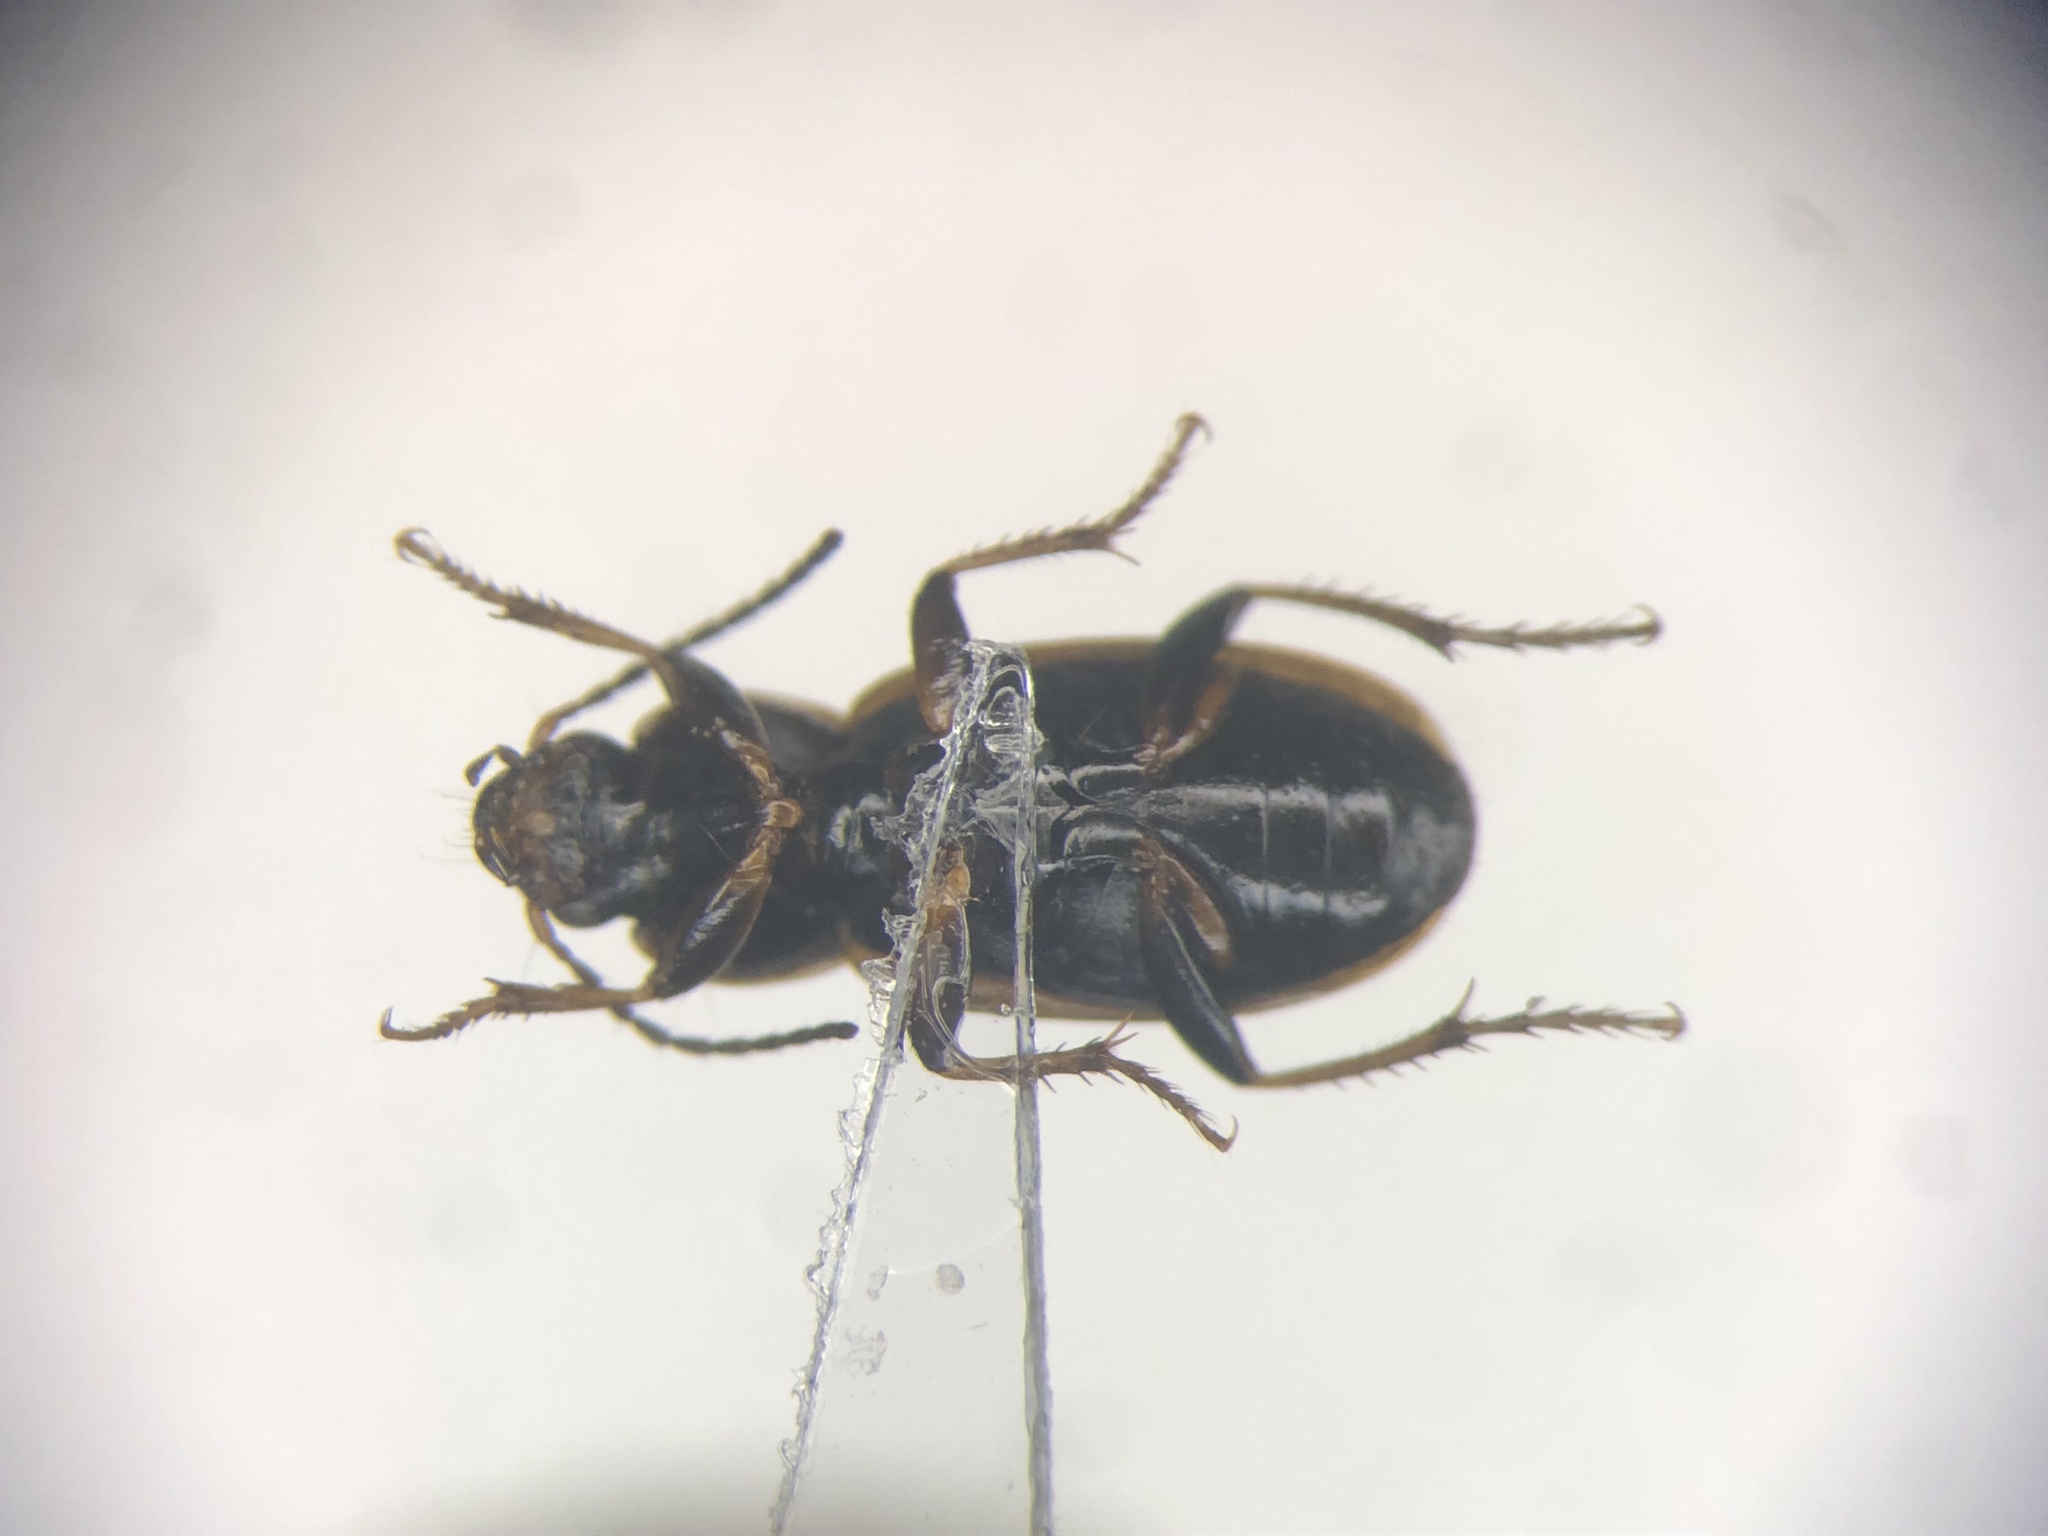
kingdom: Animalia
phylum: Arthropoda
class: Insecta
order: Coleoptera
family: Carabidae
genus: Stenolophus
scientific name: Stenolophus fuliginosus
